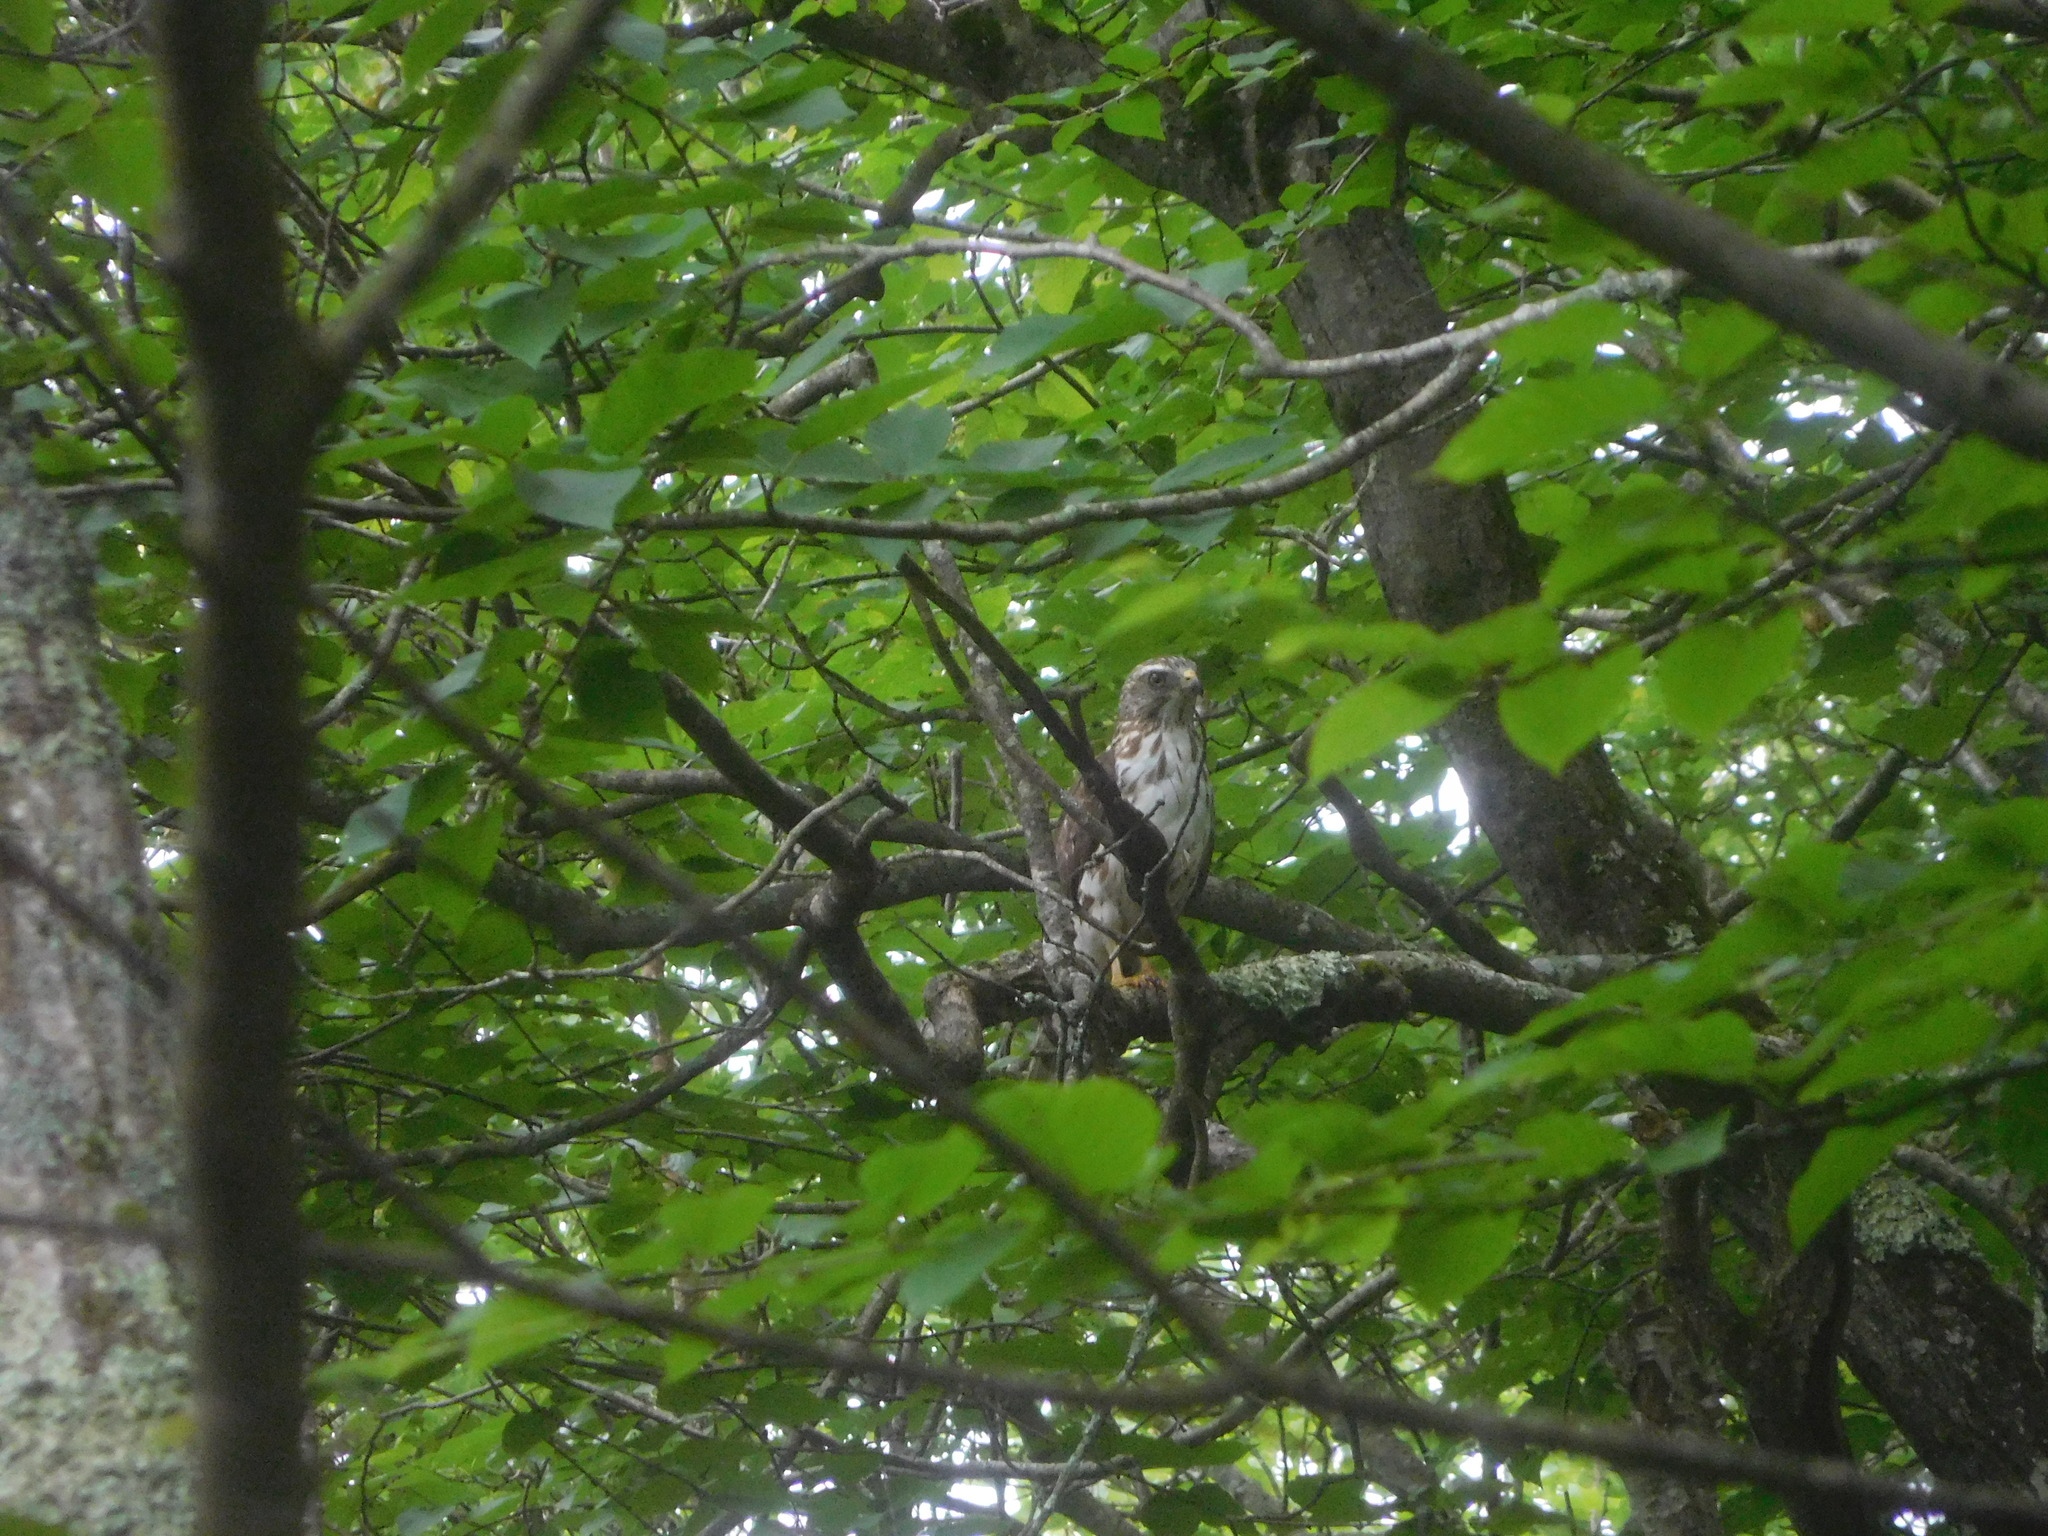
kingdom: Animalia
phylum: Chordata
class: Aves
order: Accipitriformes
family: Accipitridae
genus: Buteo
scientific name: Buteo platypterus
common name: Broad-winged hawk
